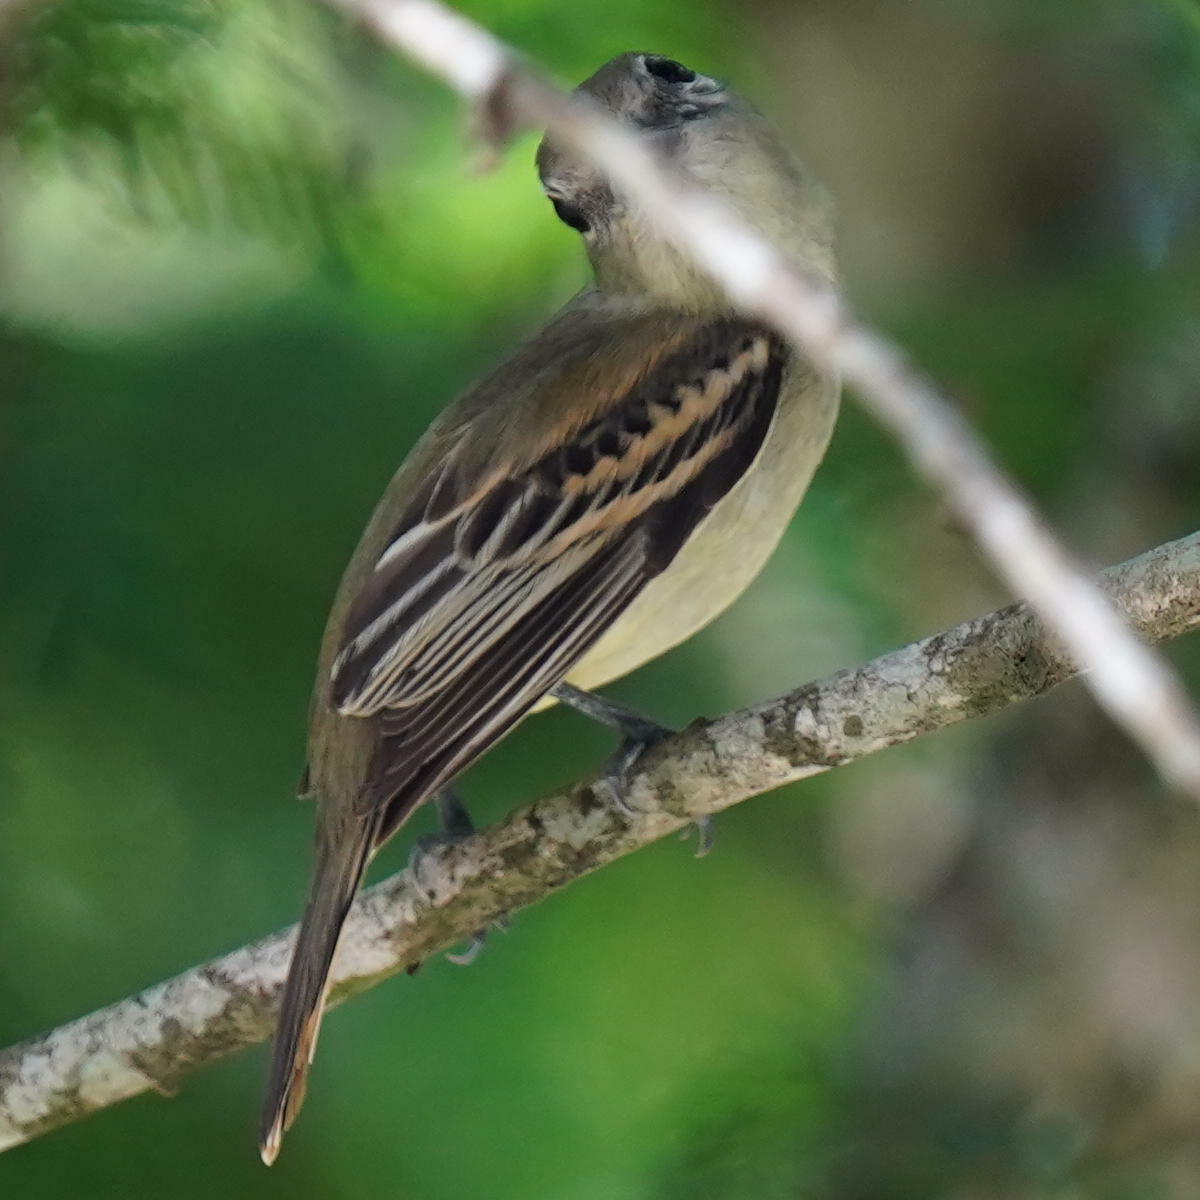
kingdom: Animalia
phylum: Chordata
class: Aves
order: Passeriformes
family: Cotingidae
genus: Pachyramphus
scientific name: Pachyramphus polychopterus
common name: White-winged becard
